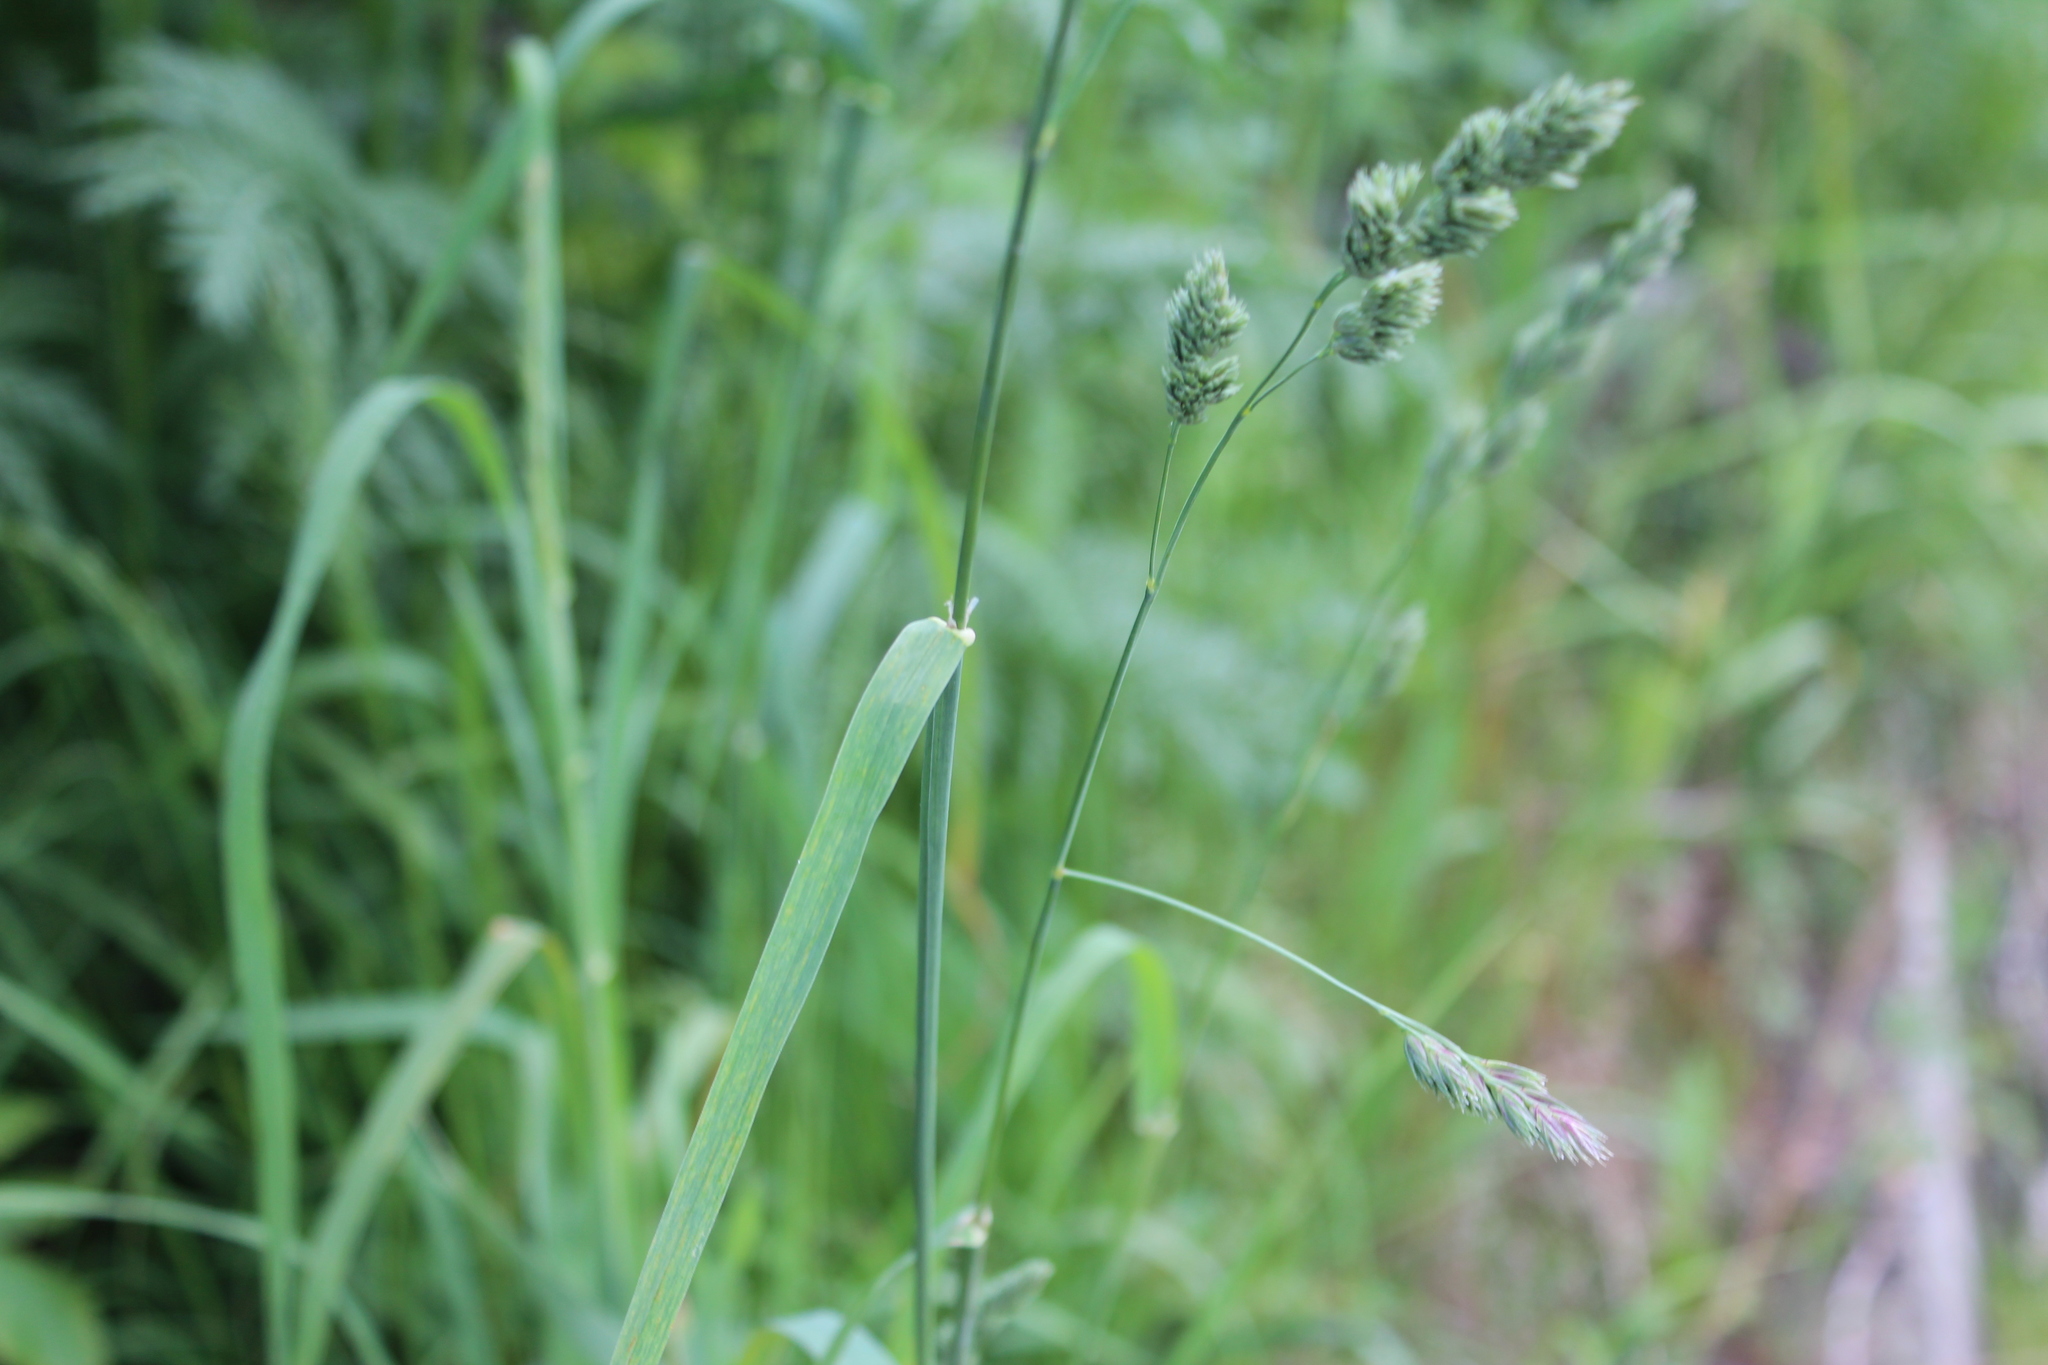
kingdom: Plantae
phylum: Tracheophyta
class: Liliopsida
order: Poales
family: Poaceae
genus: Dactylis
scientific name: Dactylis glomerata
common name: Orchardgrass
